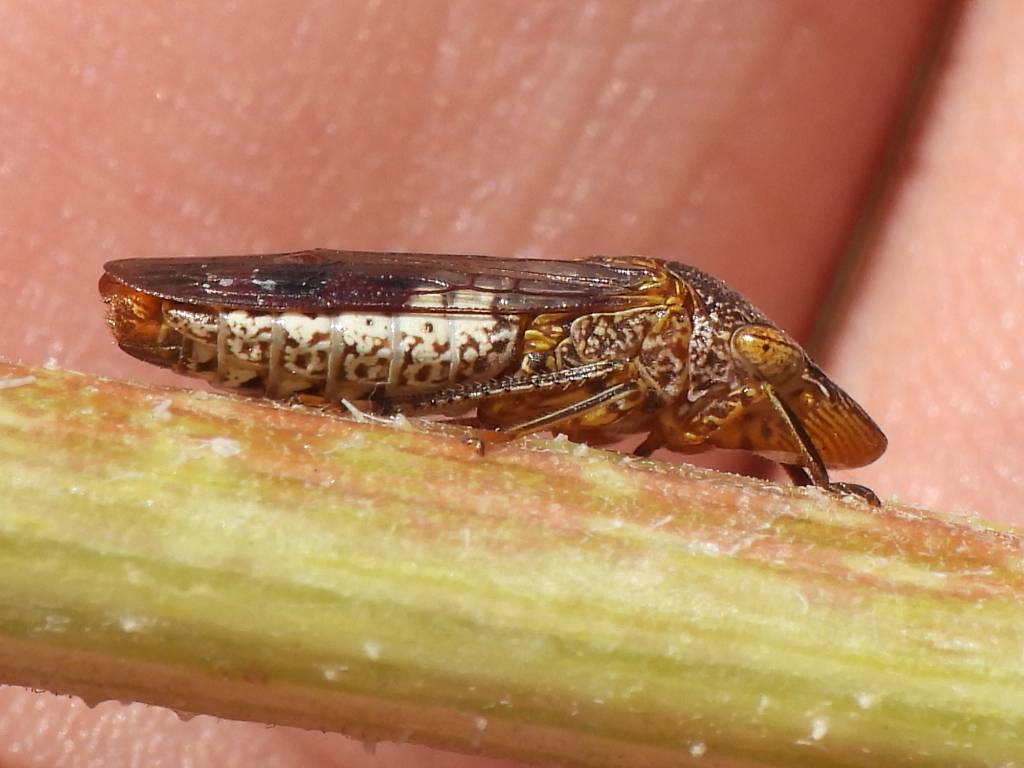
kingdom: Animalia
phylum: Arthropoda
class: Insecta
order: Hemiptera
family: Cicadellidae
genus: Homalodisca
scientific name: Homalodisca vitripennis
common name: Glassy-winged sharpshooter
